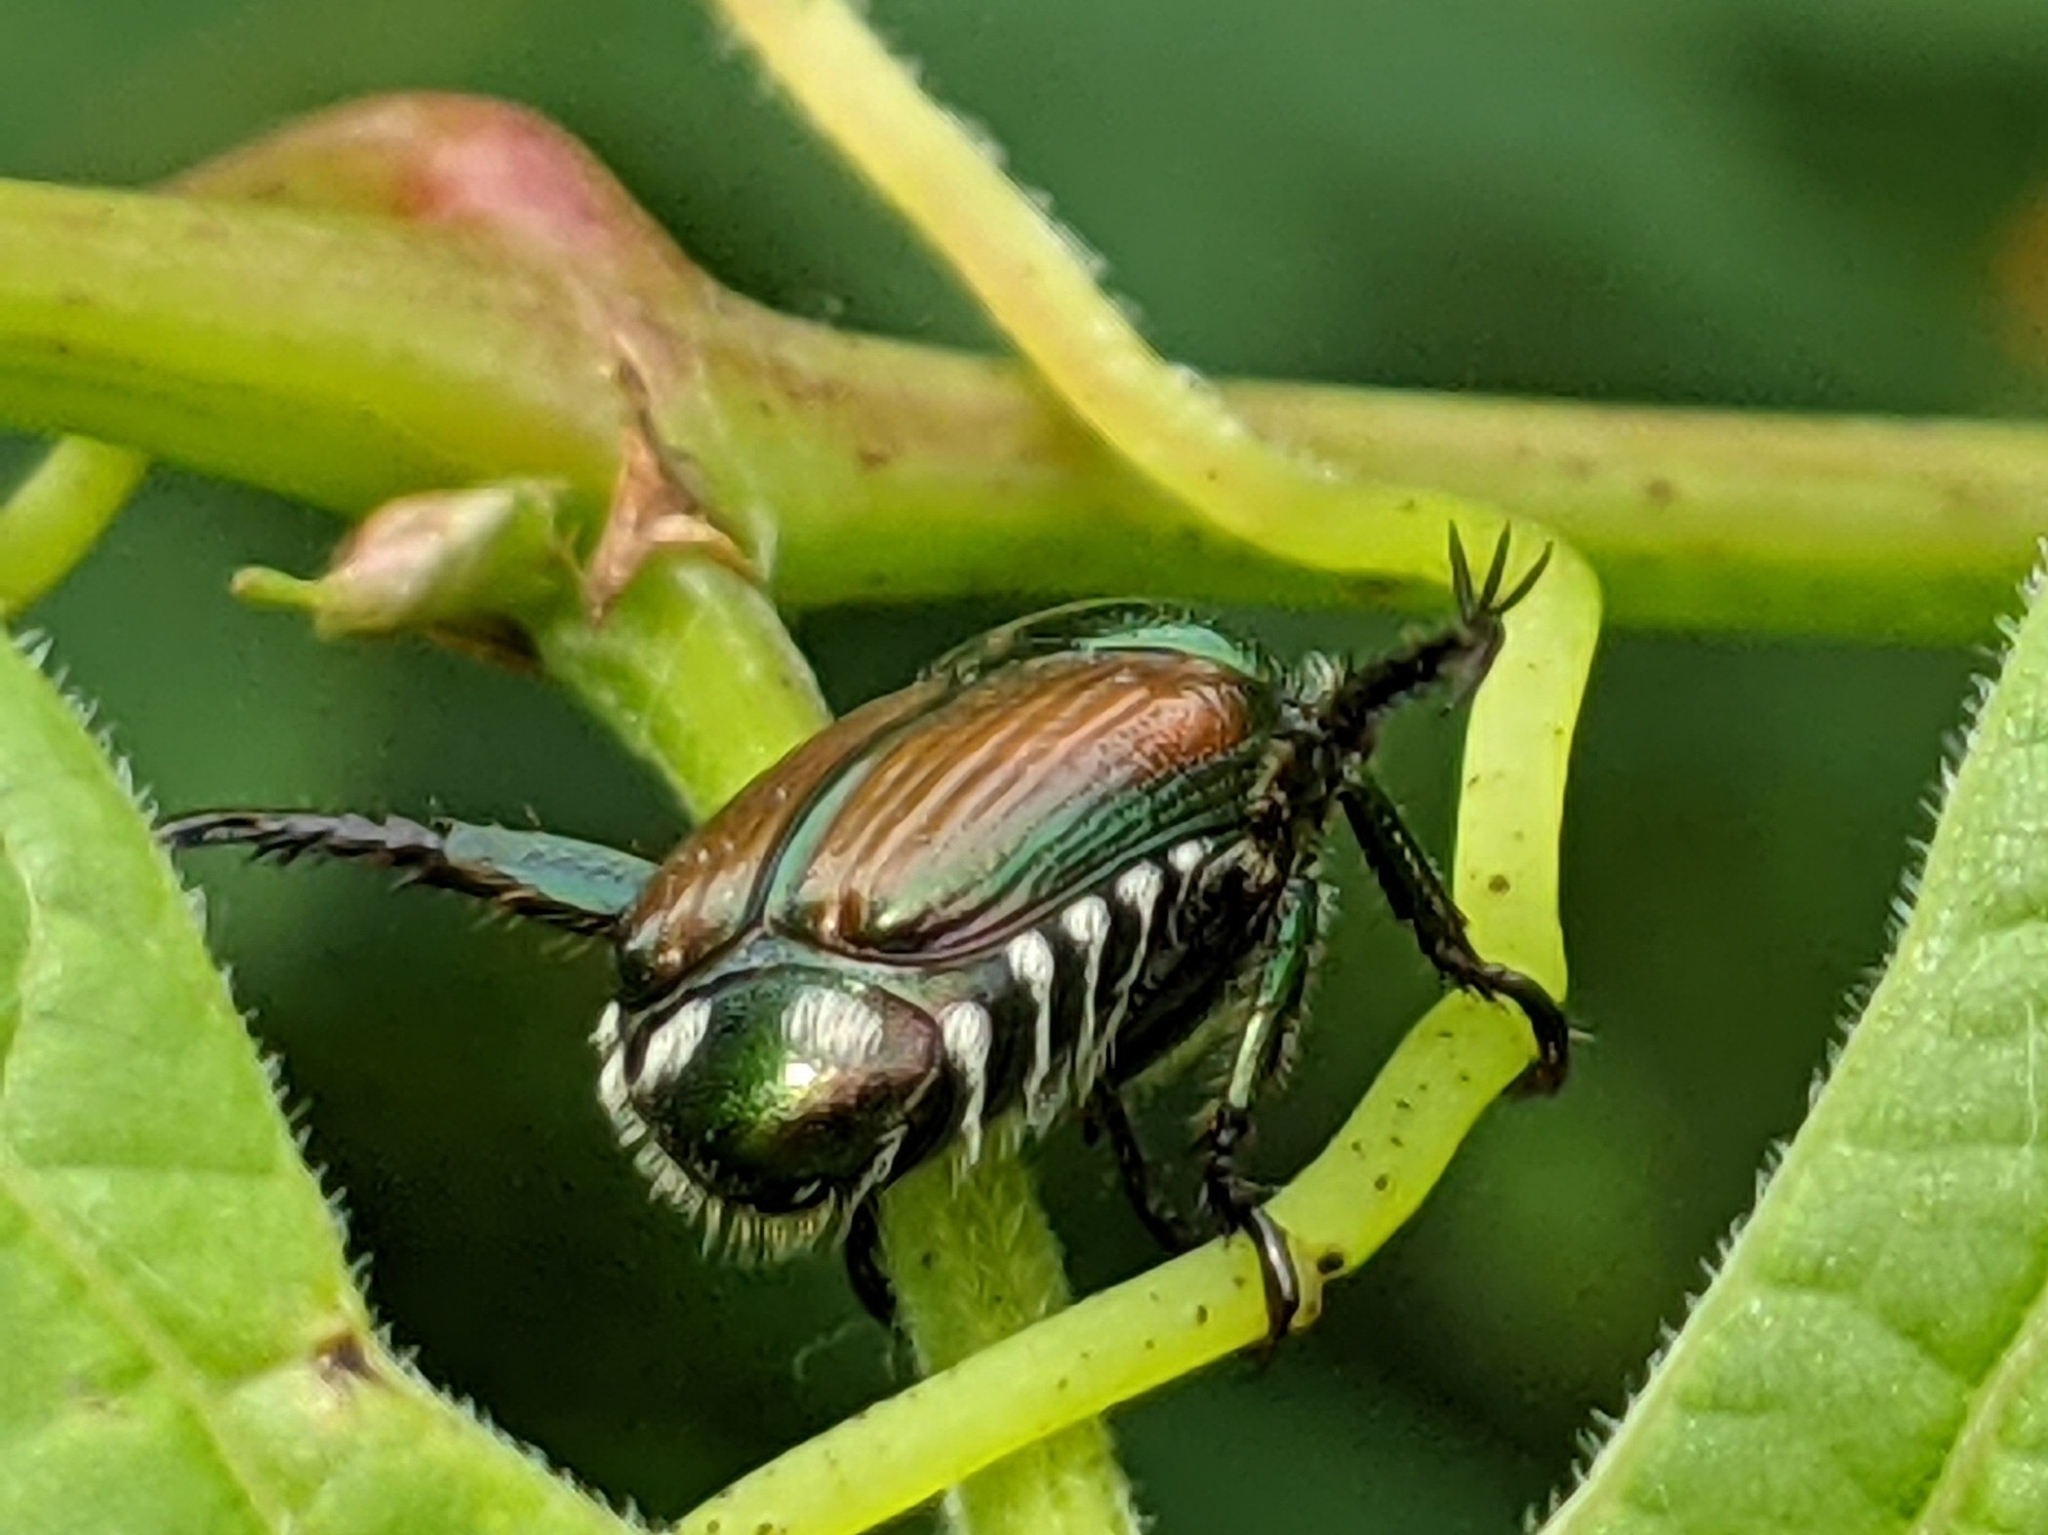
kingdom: Animalia
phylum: Arthropoda
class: Insecta
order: Coleoptera
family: Scarabaeidae
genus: Popillia
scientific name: Popillia japonica
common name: Japanese beetle
